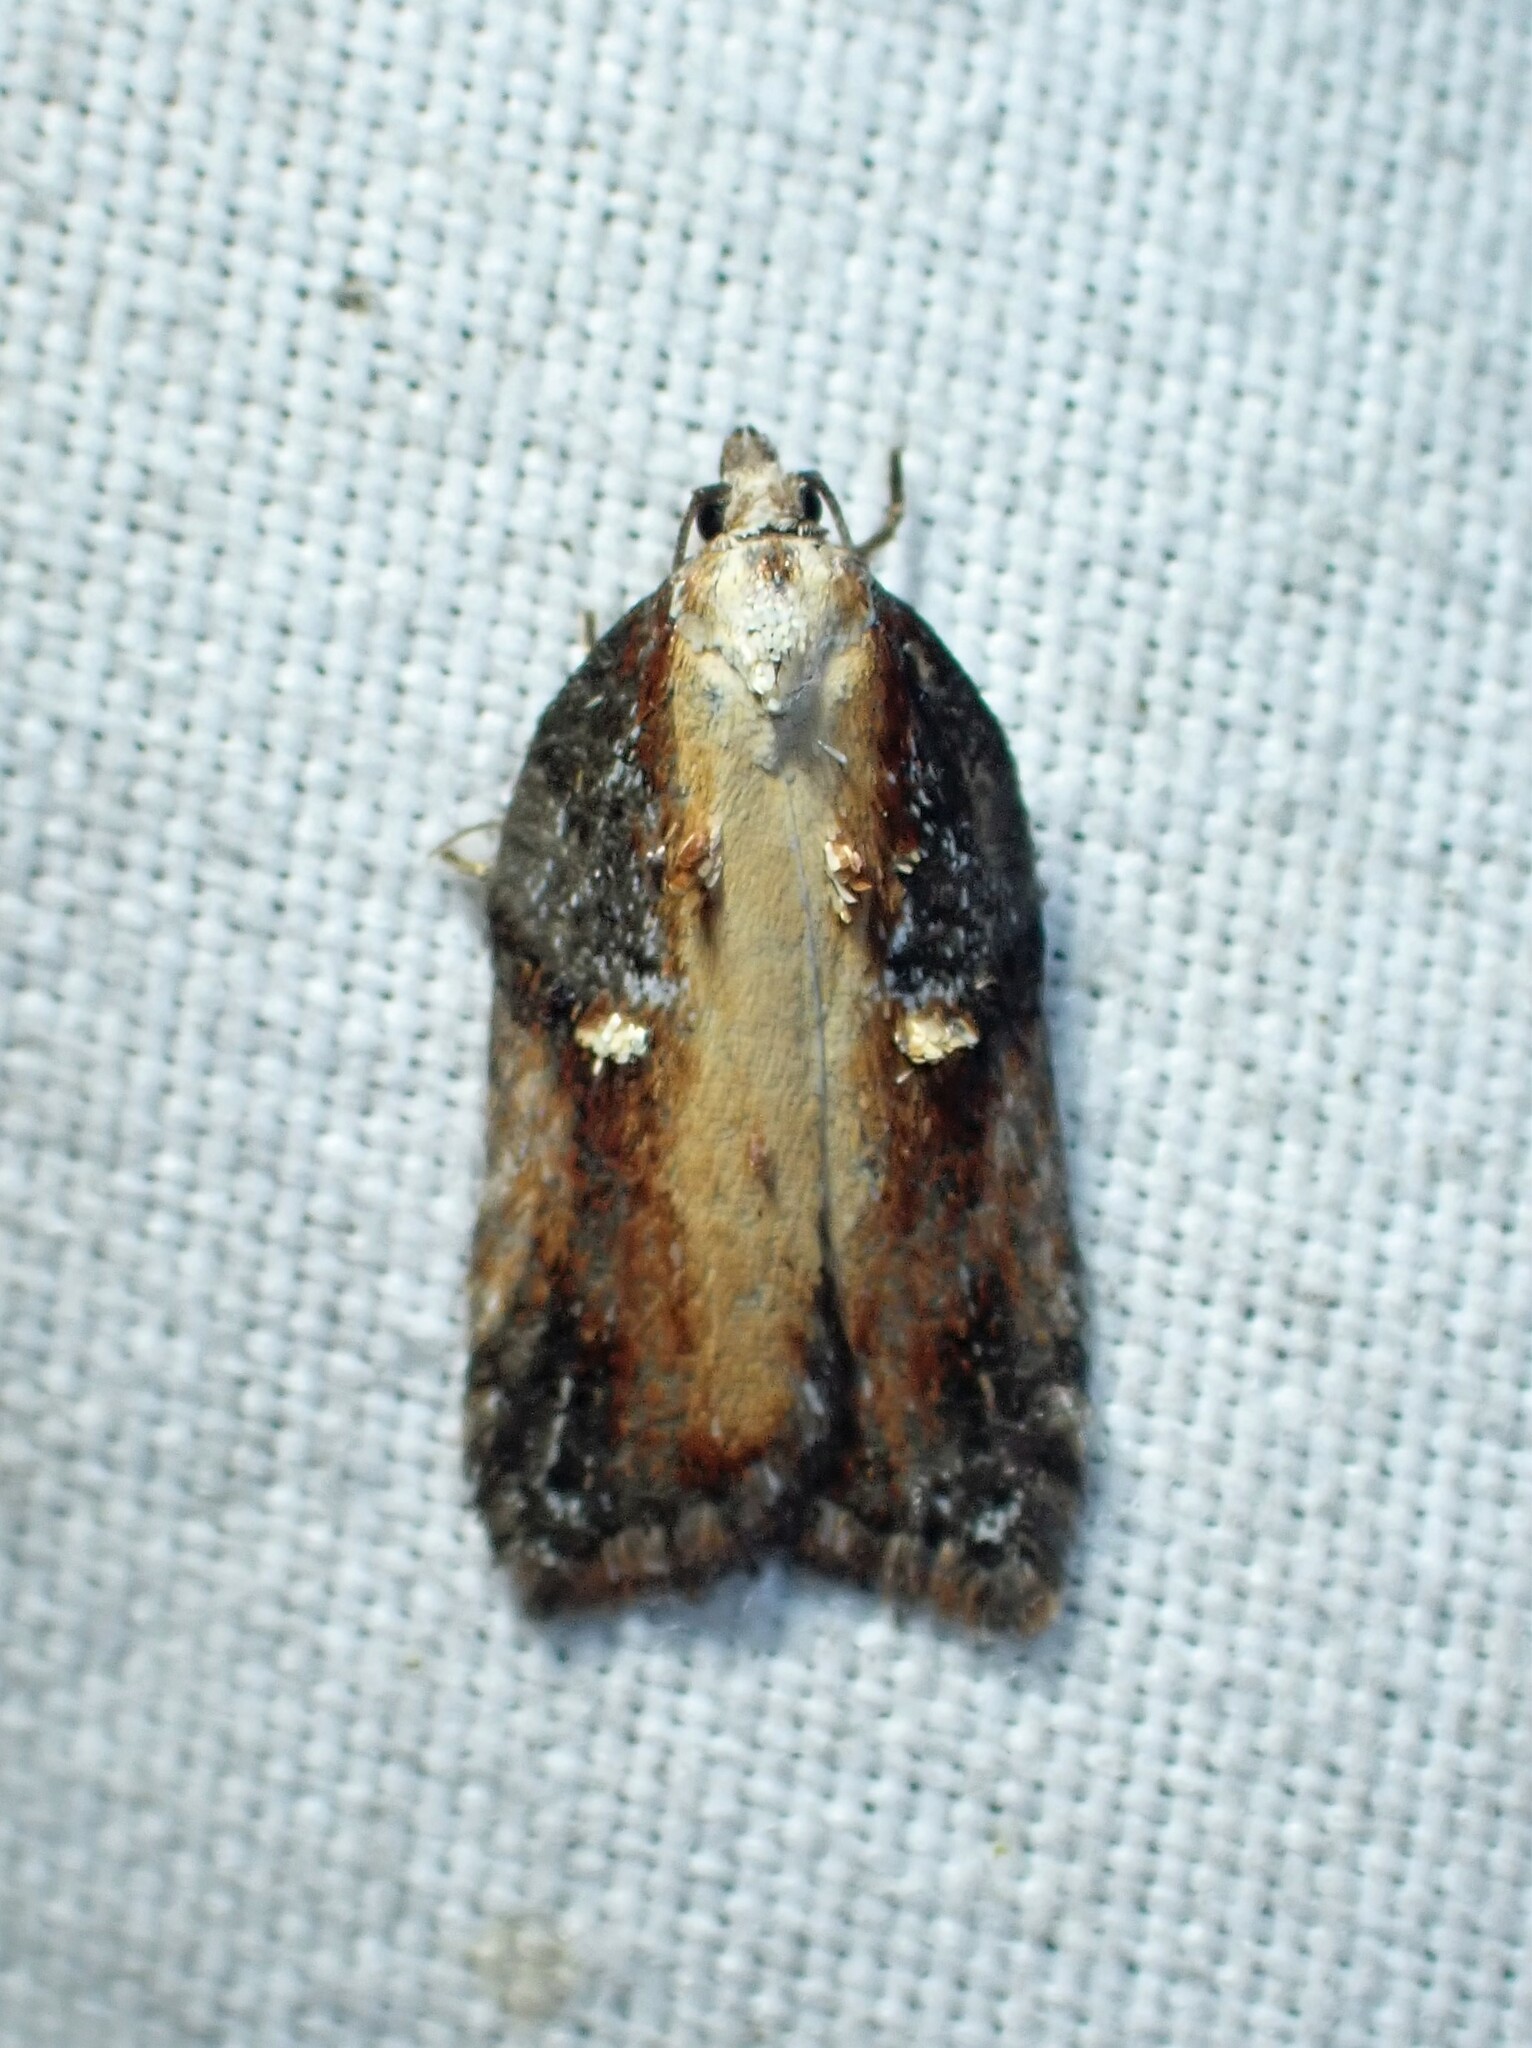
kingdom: Animalia
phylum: Arthropoda
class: Insecta
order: Lepidoptera
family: Tortricidae
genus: Acleris
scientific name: Acleris robinsoniana
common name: Robinson's acleris moth
